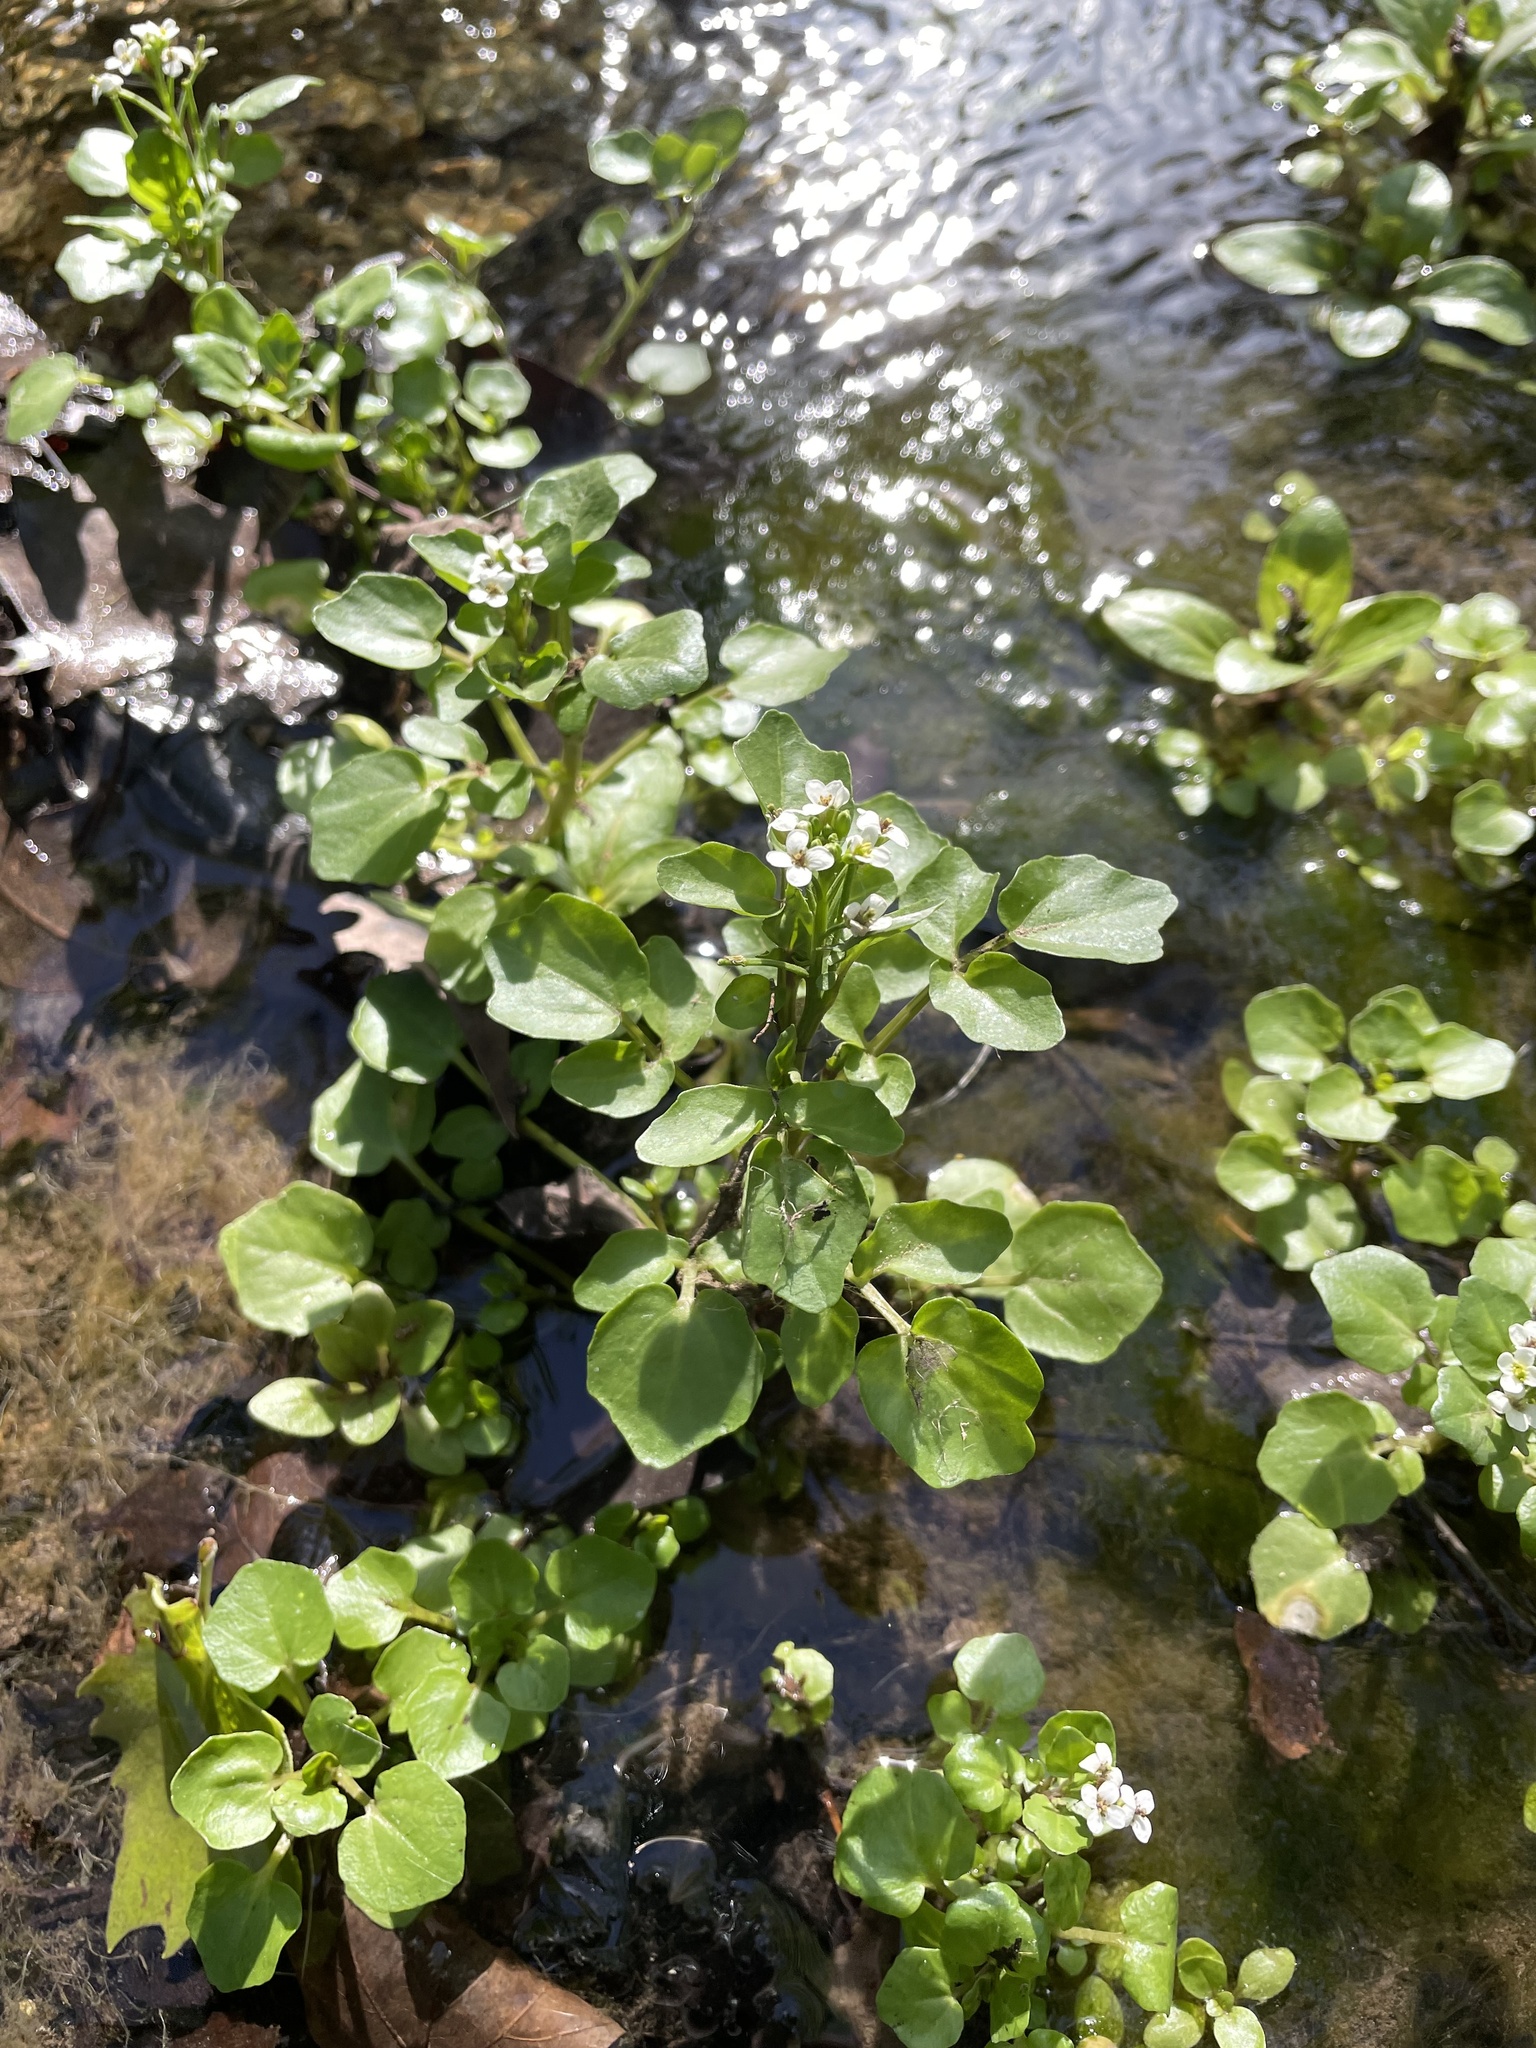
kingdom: Plantae
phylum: Tracheophyta
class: Magnoliopsida
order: Brassicales
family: Brassicaceae
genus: Nasturtium
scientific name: Nasturtium officinale
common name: Watercress
